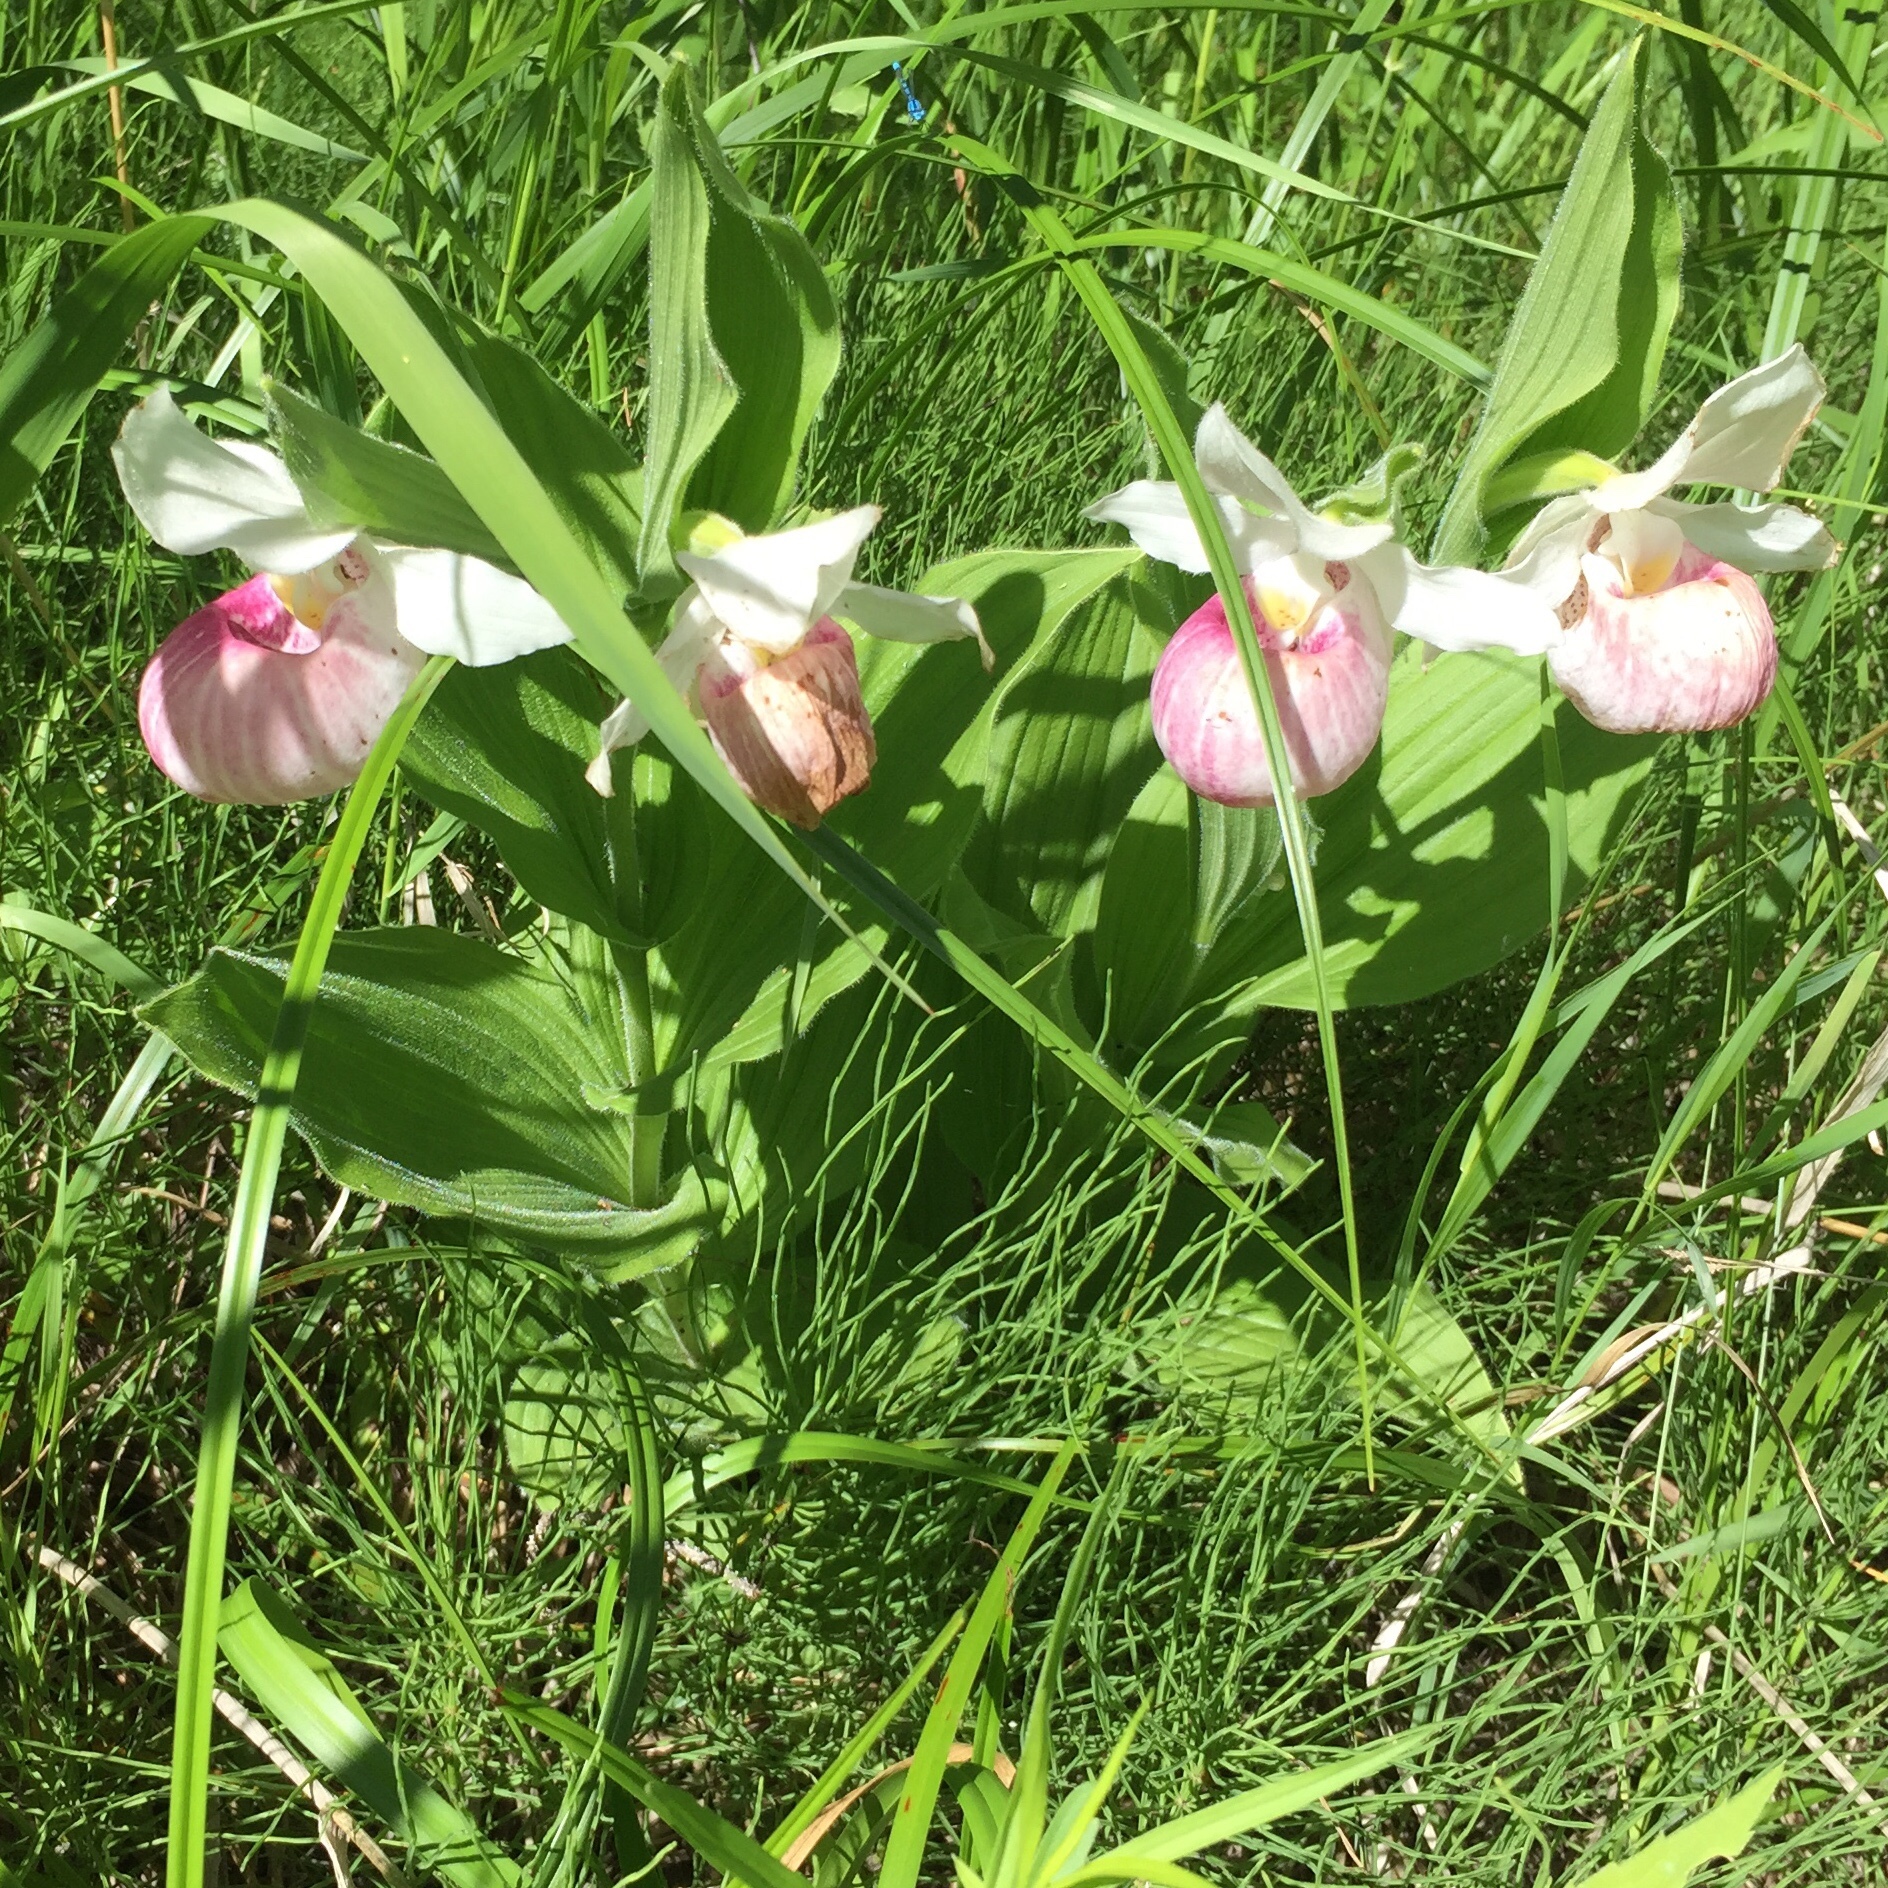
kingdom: Plantae
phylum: Tracheophyta
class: Liliopsida
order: Asparagales
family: Orchidaceae
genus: Cypripedium
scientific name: Cypripedium reginae
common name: Queen lady's-slipper
